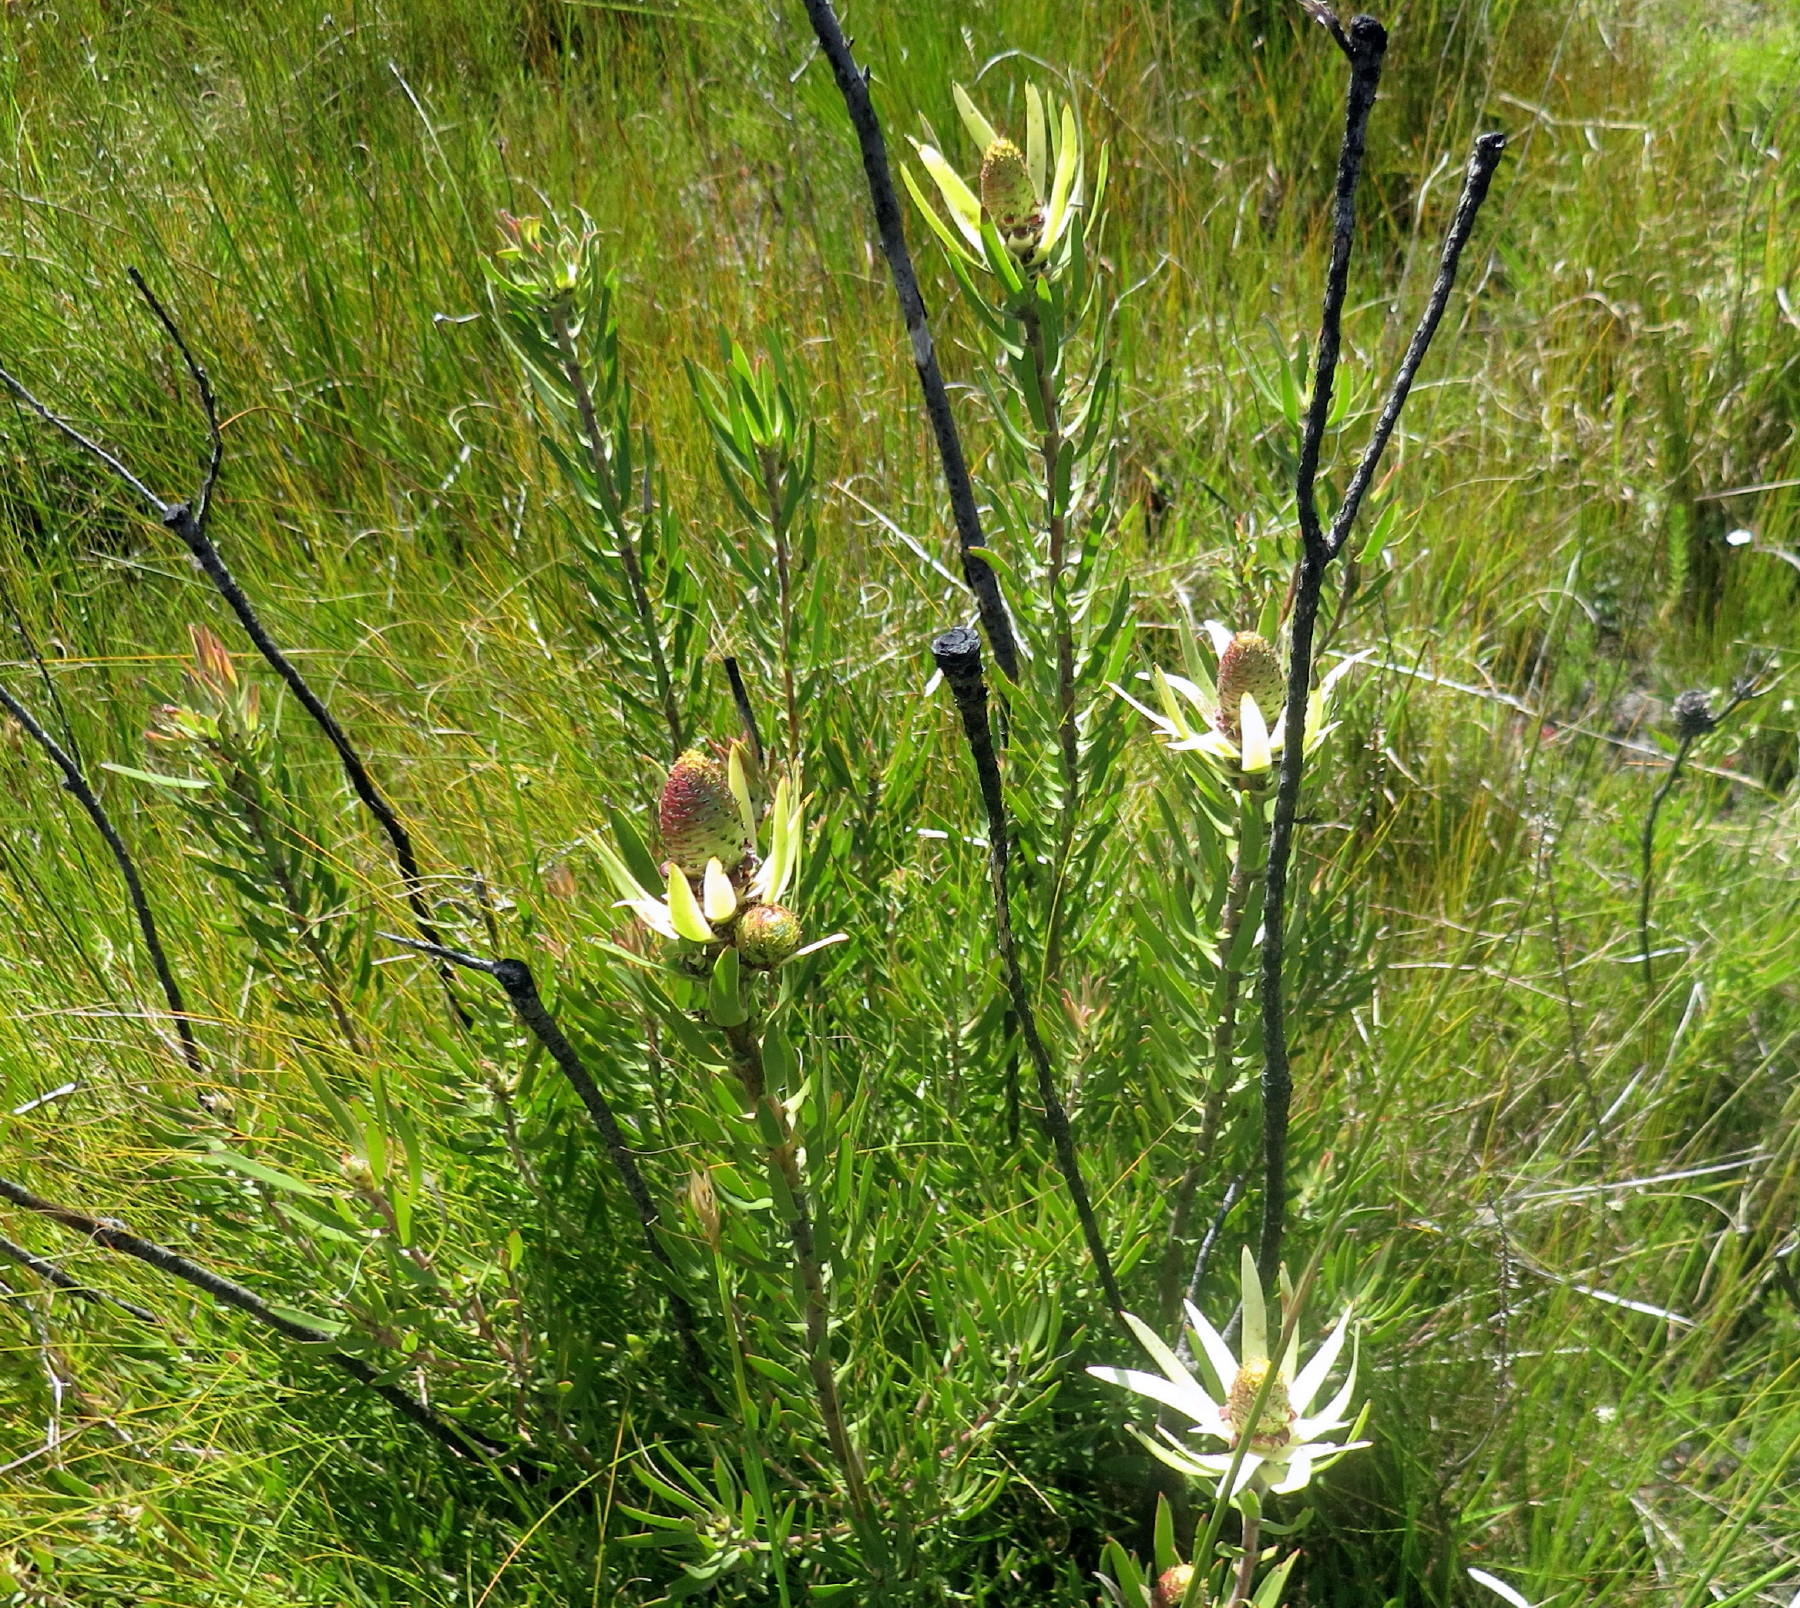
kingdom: Plantae
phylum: Tracheophyta
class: Magnoliopsida
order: Proteales
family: Proteaceae
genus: Leucadendron
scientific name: Leucadendron spissifolium
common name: Spear-leaf conebush
